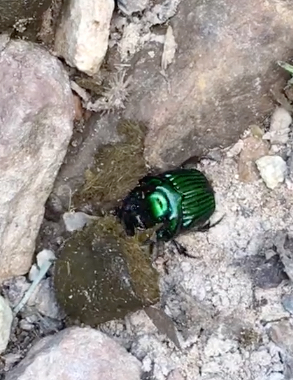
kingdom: Animalia
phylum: Arthropoda
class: Insecta
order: Coleoptera
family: Scarabaeidae
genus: Oxysternon
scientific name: Oxysternon conspicillatum
